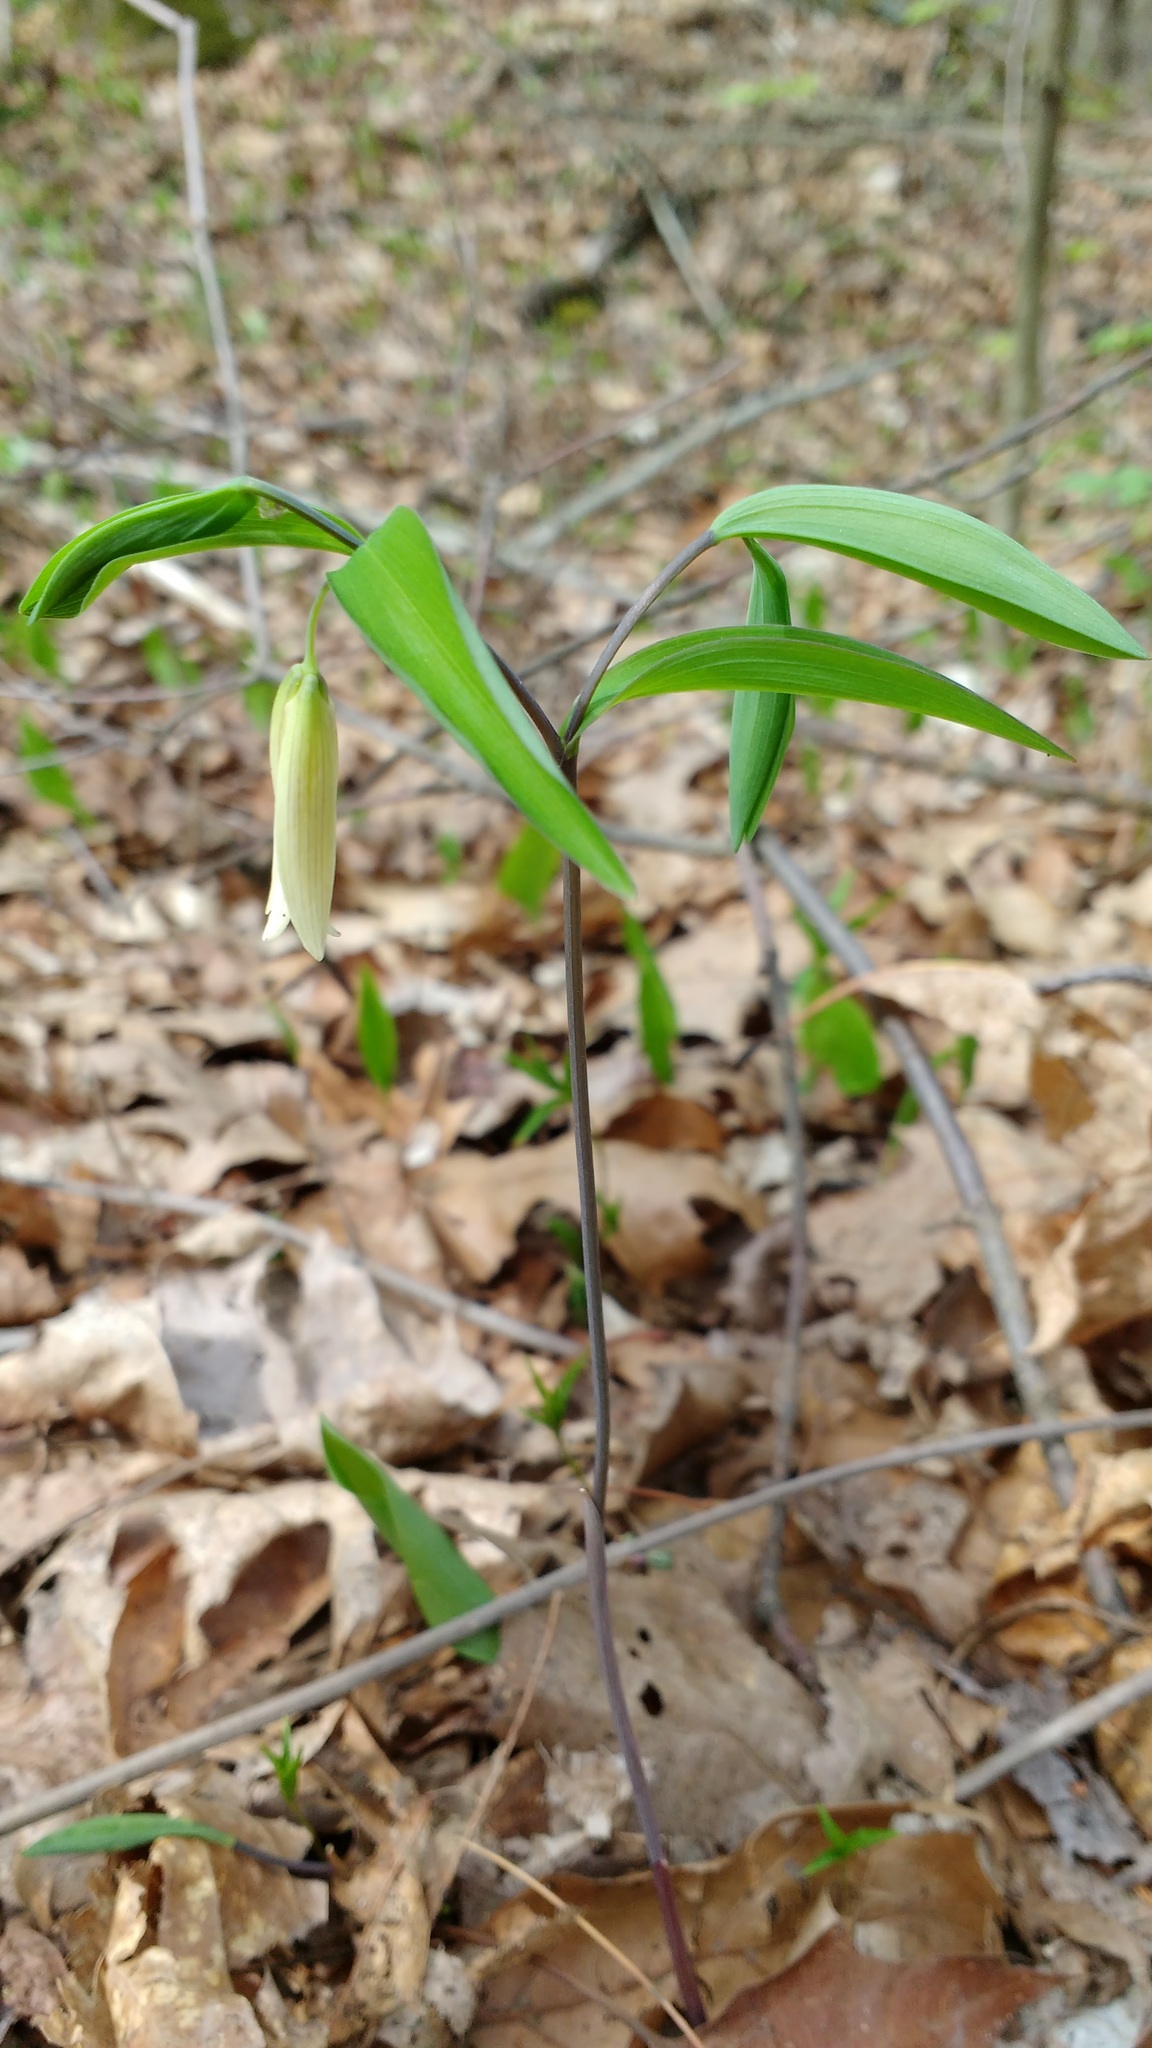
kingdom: Plantae
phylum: Tracheophyta
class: Liliopsida
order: Liliales
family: Colchicaceae
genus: Uvularia
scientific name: Uvularia sessilifolia
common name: Straw-lily
